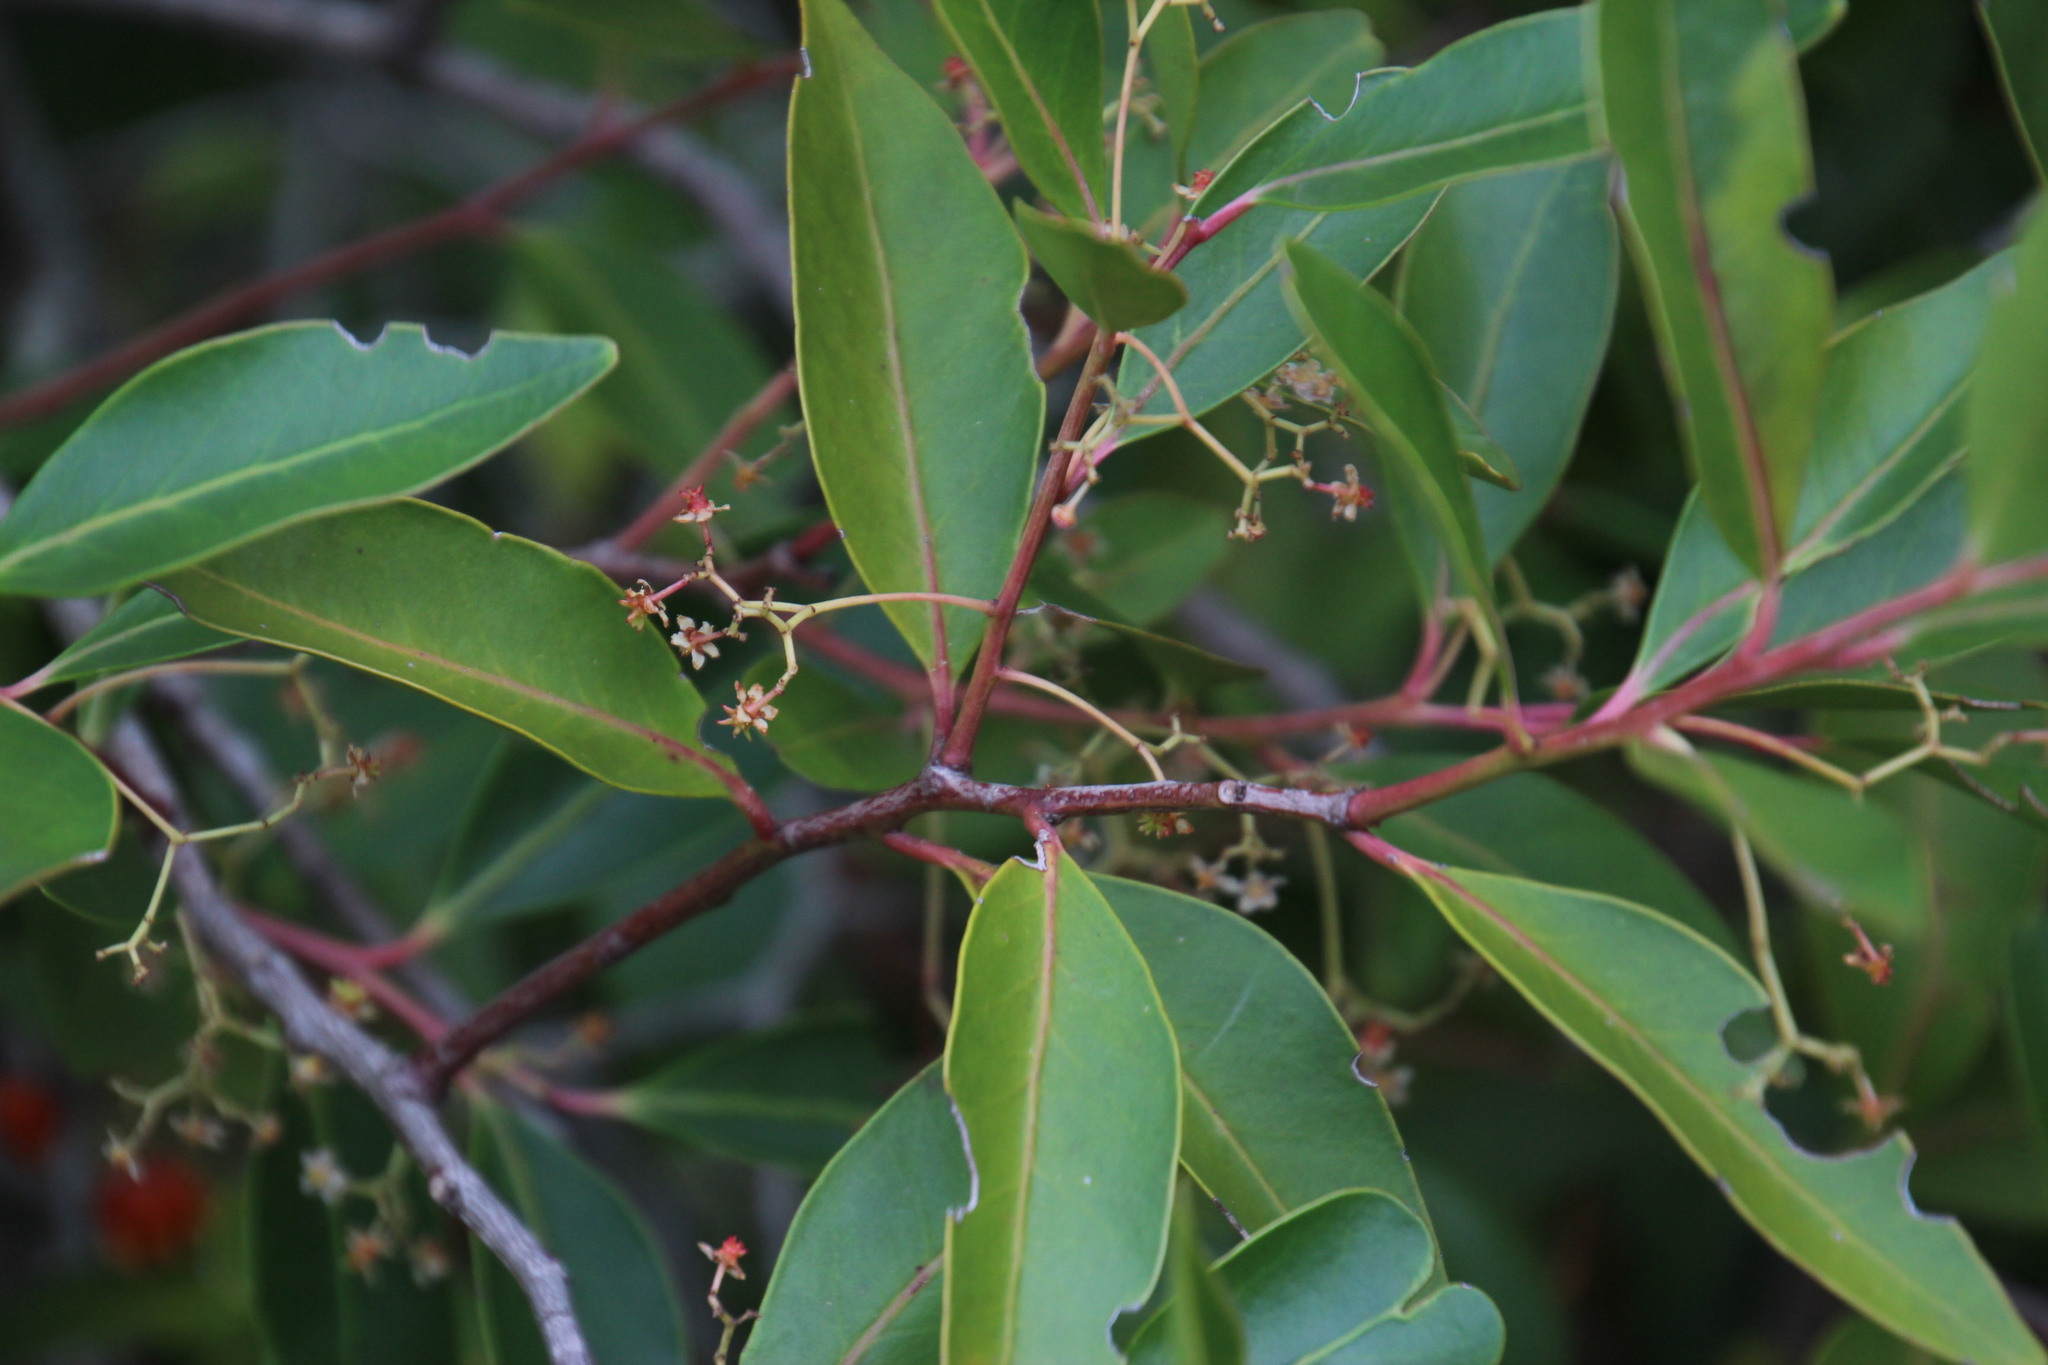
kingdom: Plantae
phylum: Tracheophyta
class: Magnoliopsida
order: Celastrales
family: Celastraceae
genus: Pterocelastrus
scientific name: Pterocelastrus rostratus
